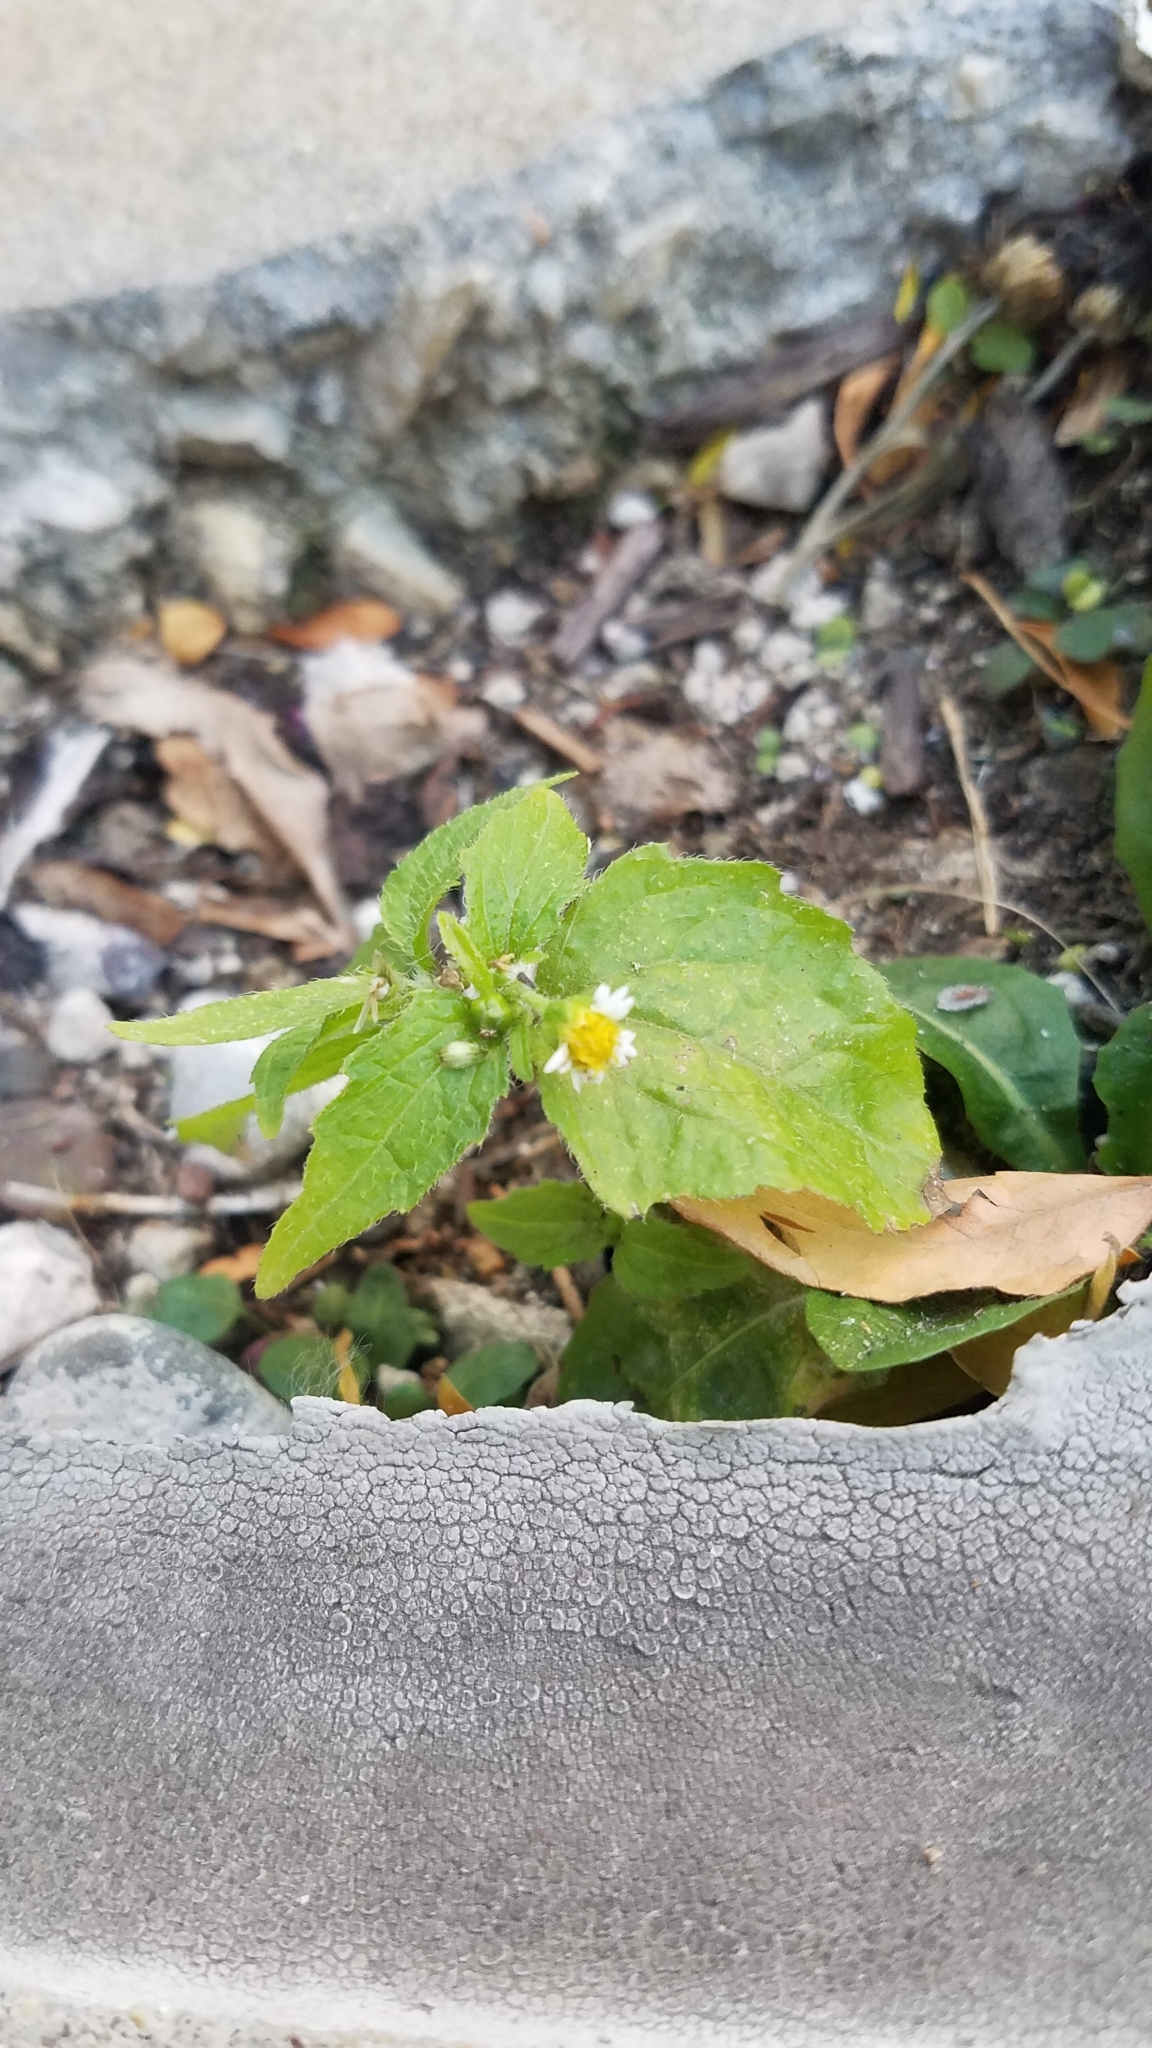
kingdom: Plantae
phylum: Tracheophyta
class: Magnoliopsida
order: Asterales
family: Asteraceae
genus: Galinsoga
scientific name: Galinsoga quadriradiata
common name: Shaggy soldier
